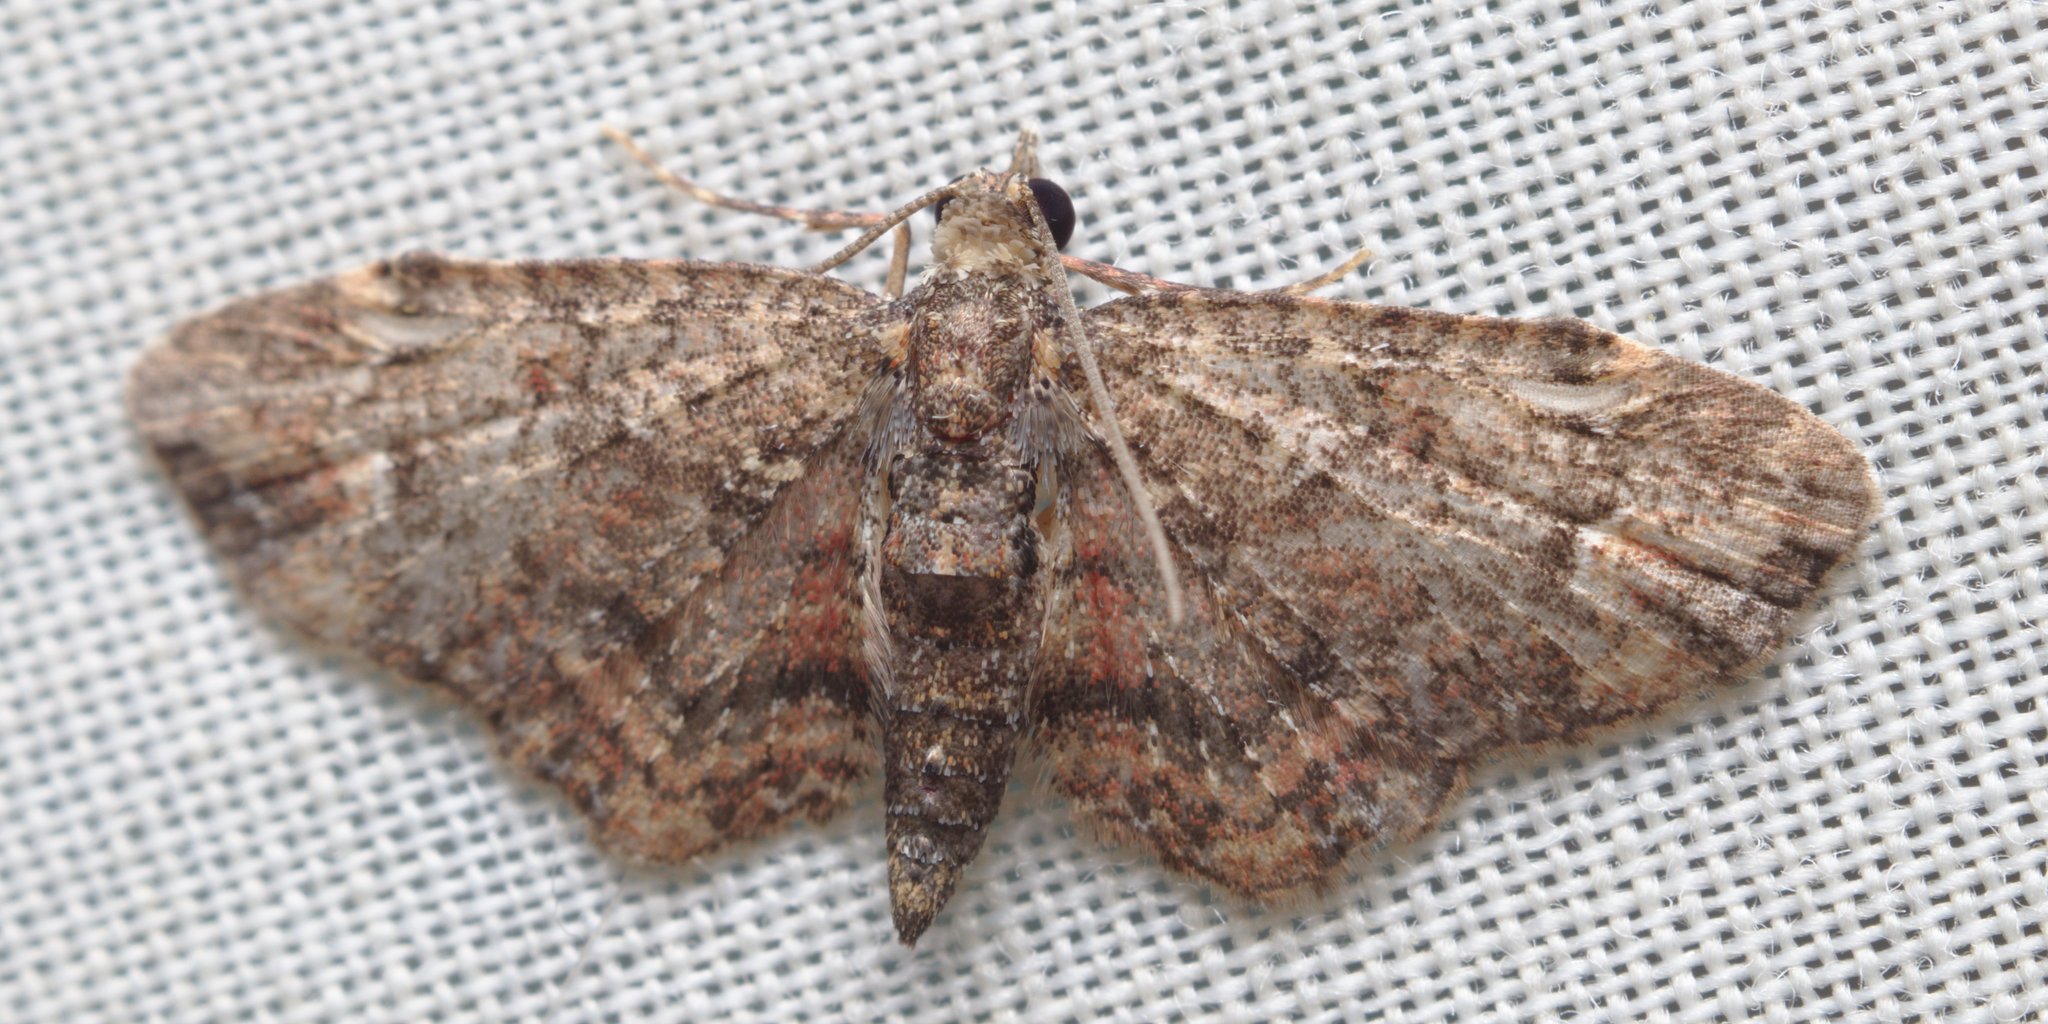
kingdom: Animalia
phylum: Arthropoda
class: Insecta
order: Lepidoptera
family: Geometridae
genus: Pasiphilodes
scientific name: Pasiphilodes testulata
